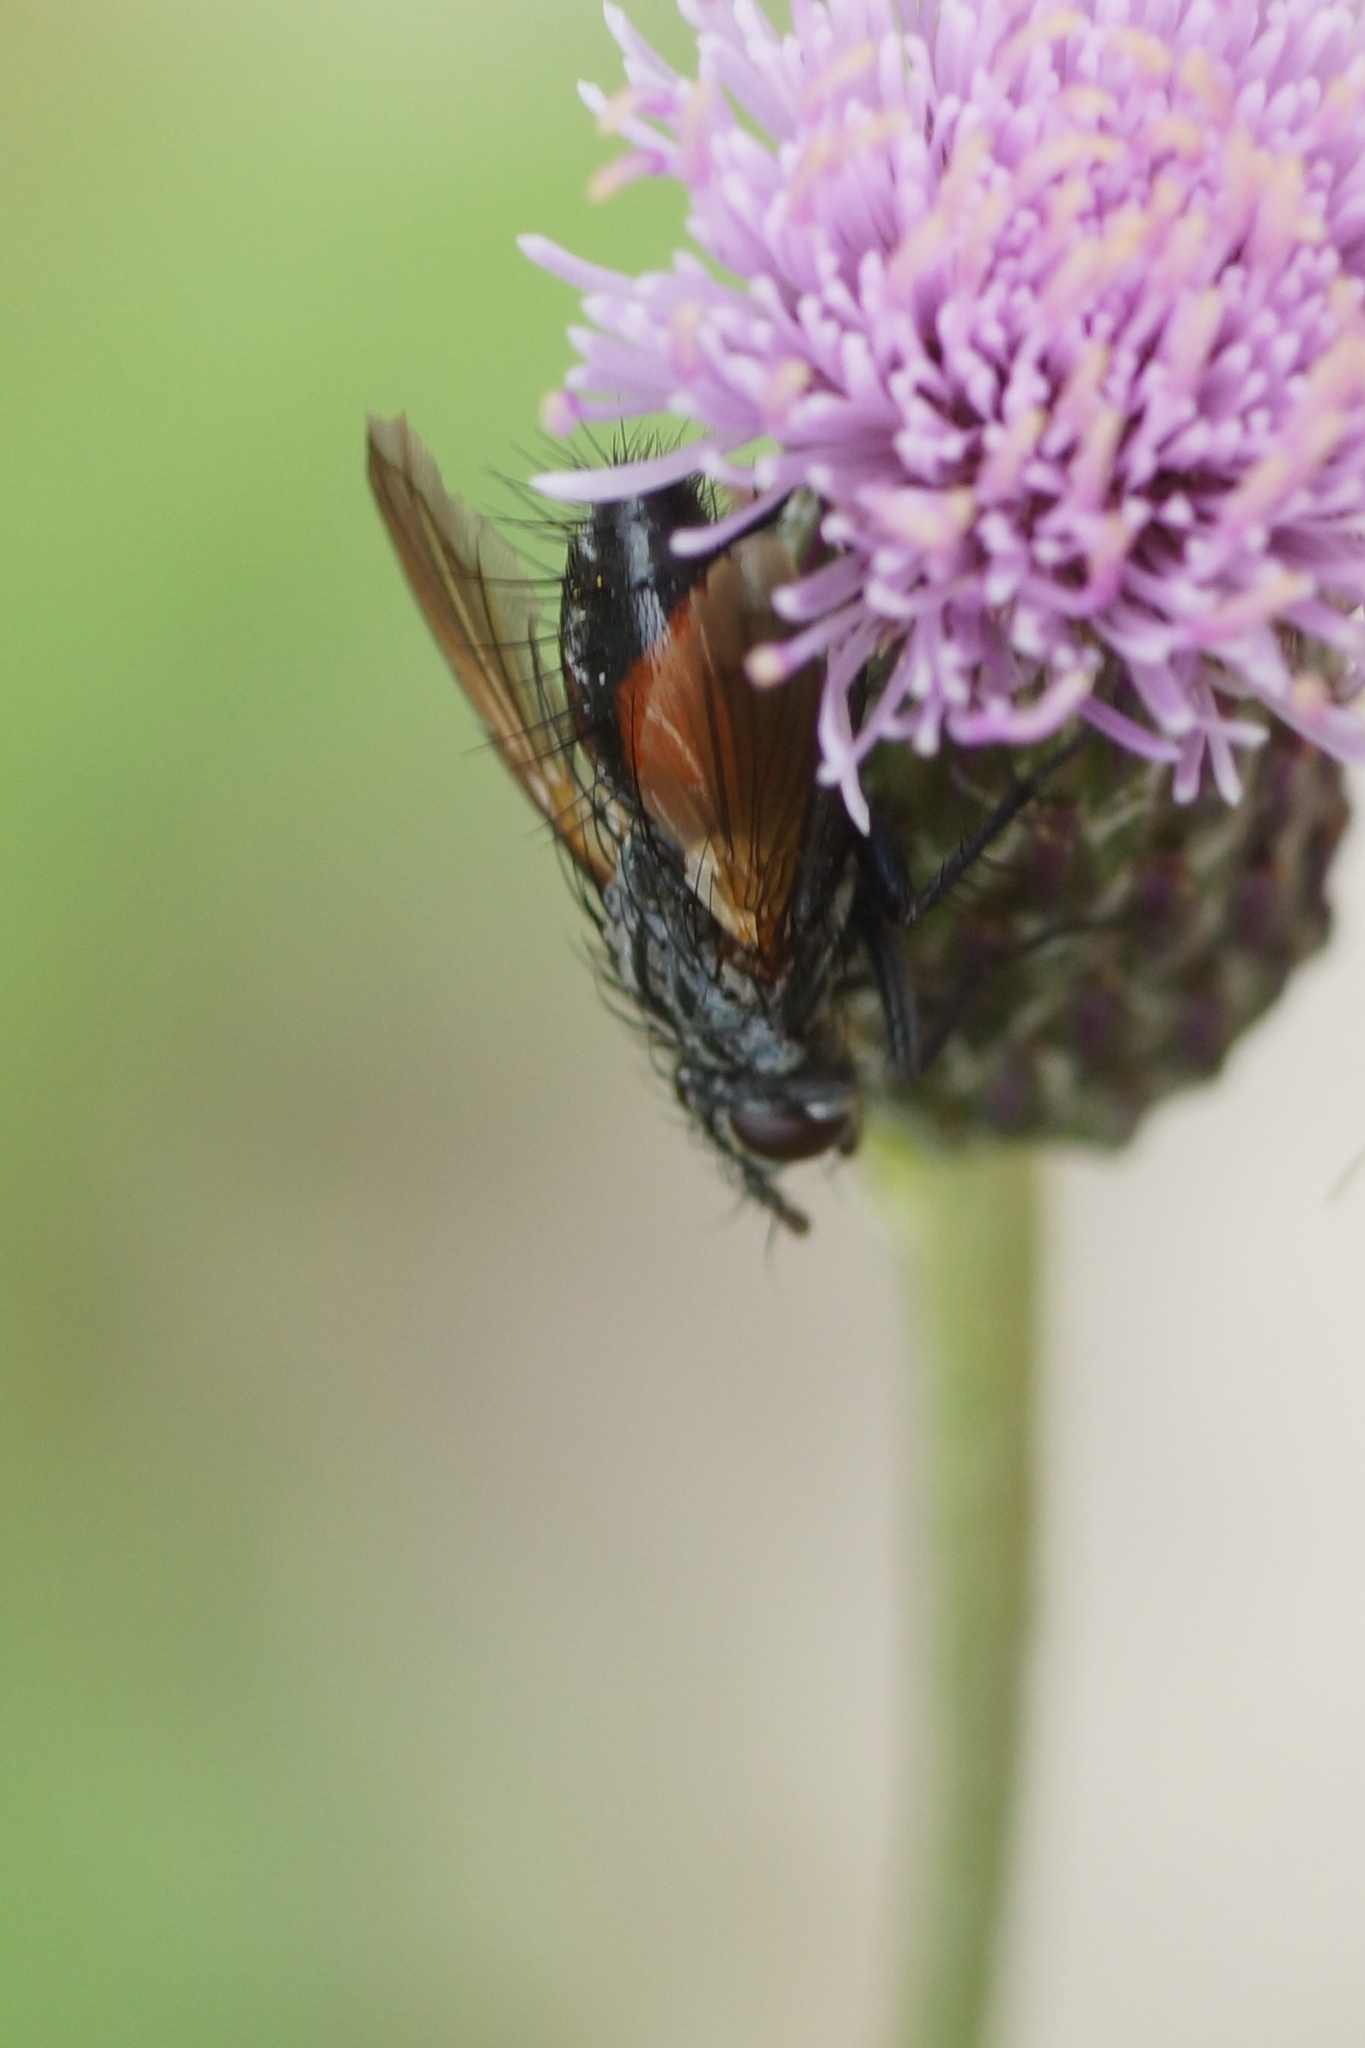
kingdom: Animalia
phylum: Arthropoda
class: Insecta
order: Diptera
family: Tachinidae
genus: Eriothrix
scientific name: Eriothrix rufomaculatus
